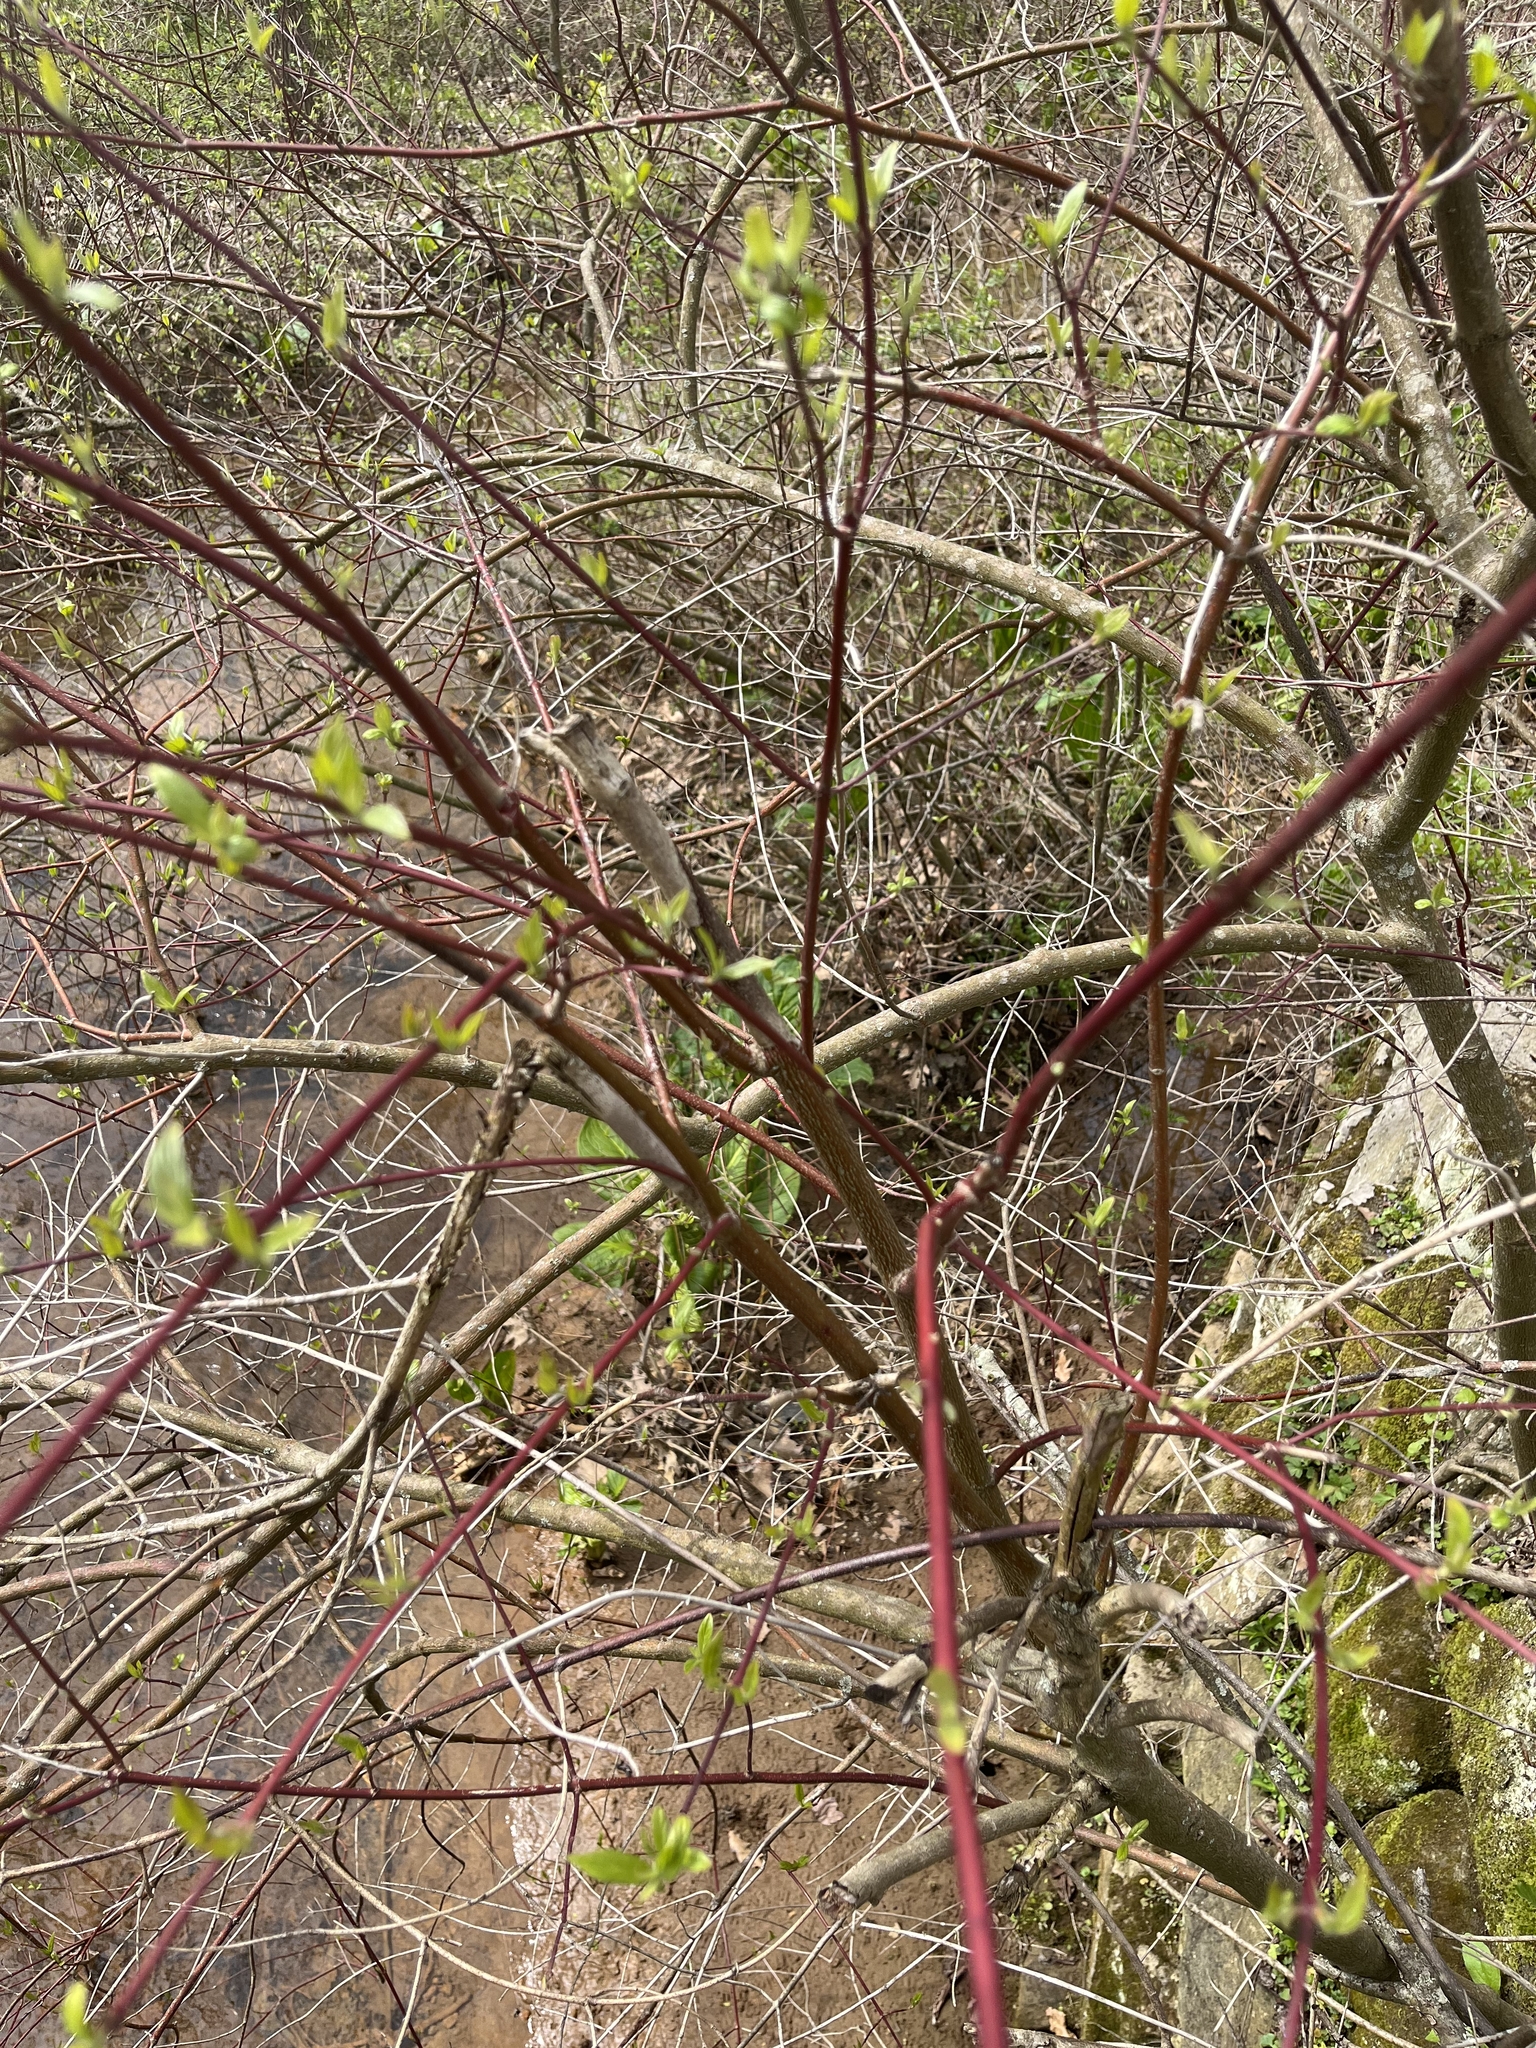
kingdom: Plantae
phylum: Tracheophyta
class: Magnoliopsida
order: Cornales
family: Cornaceae
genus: Cornus
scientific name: Cornus sericea
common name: Red-osier dogwood
